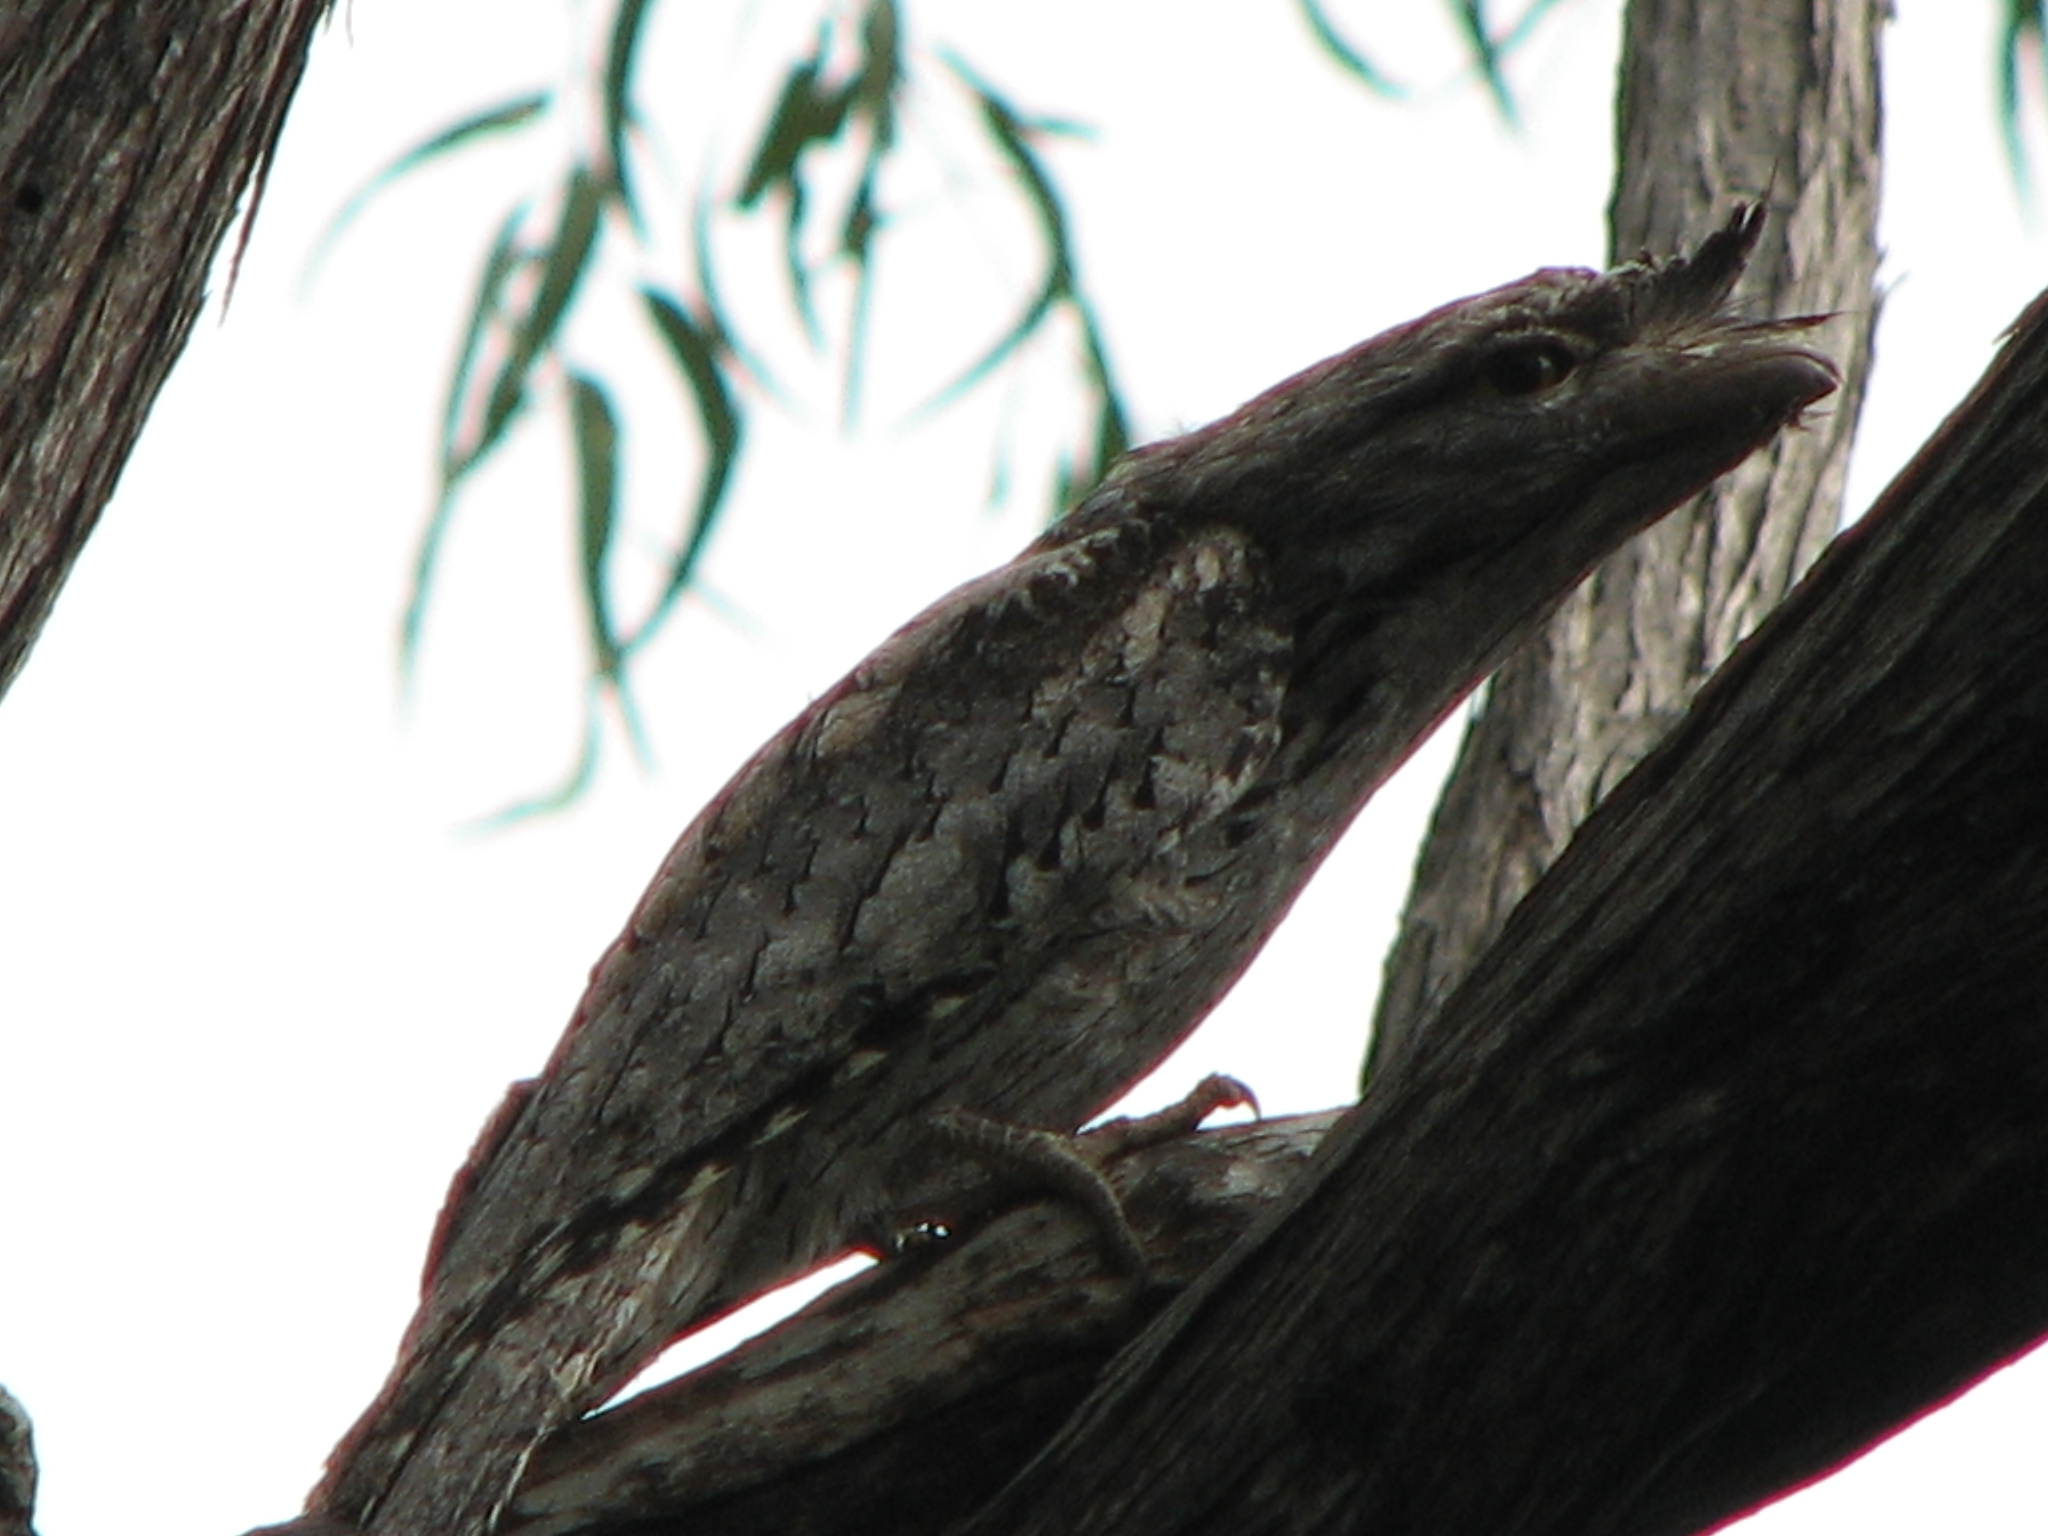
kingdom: Animalia
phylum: Chordata
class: Aves
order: Caprimulgiformes
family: Podargidae
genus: Podargus
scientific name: Podargus strigoides
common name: Tawny frogmouth
